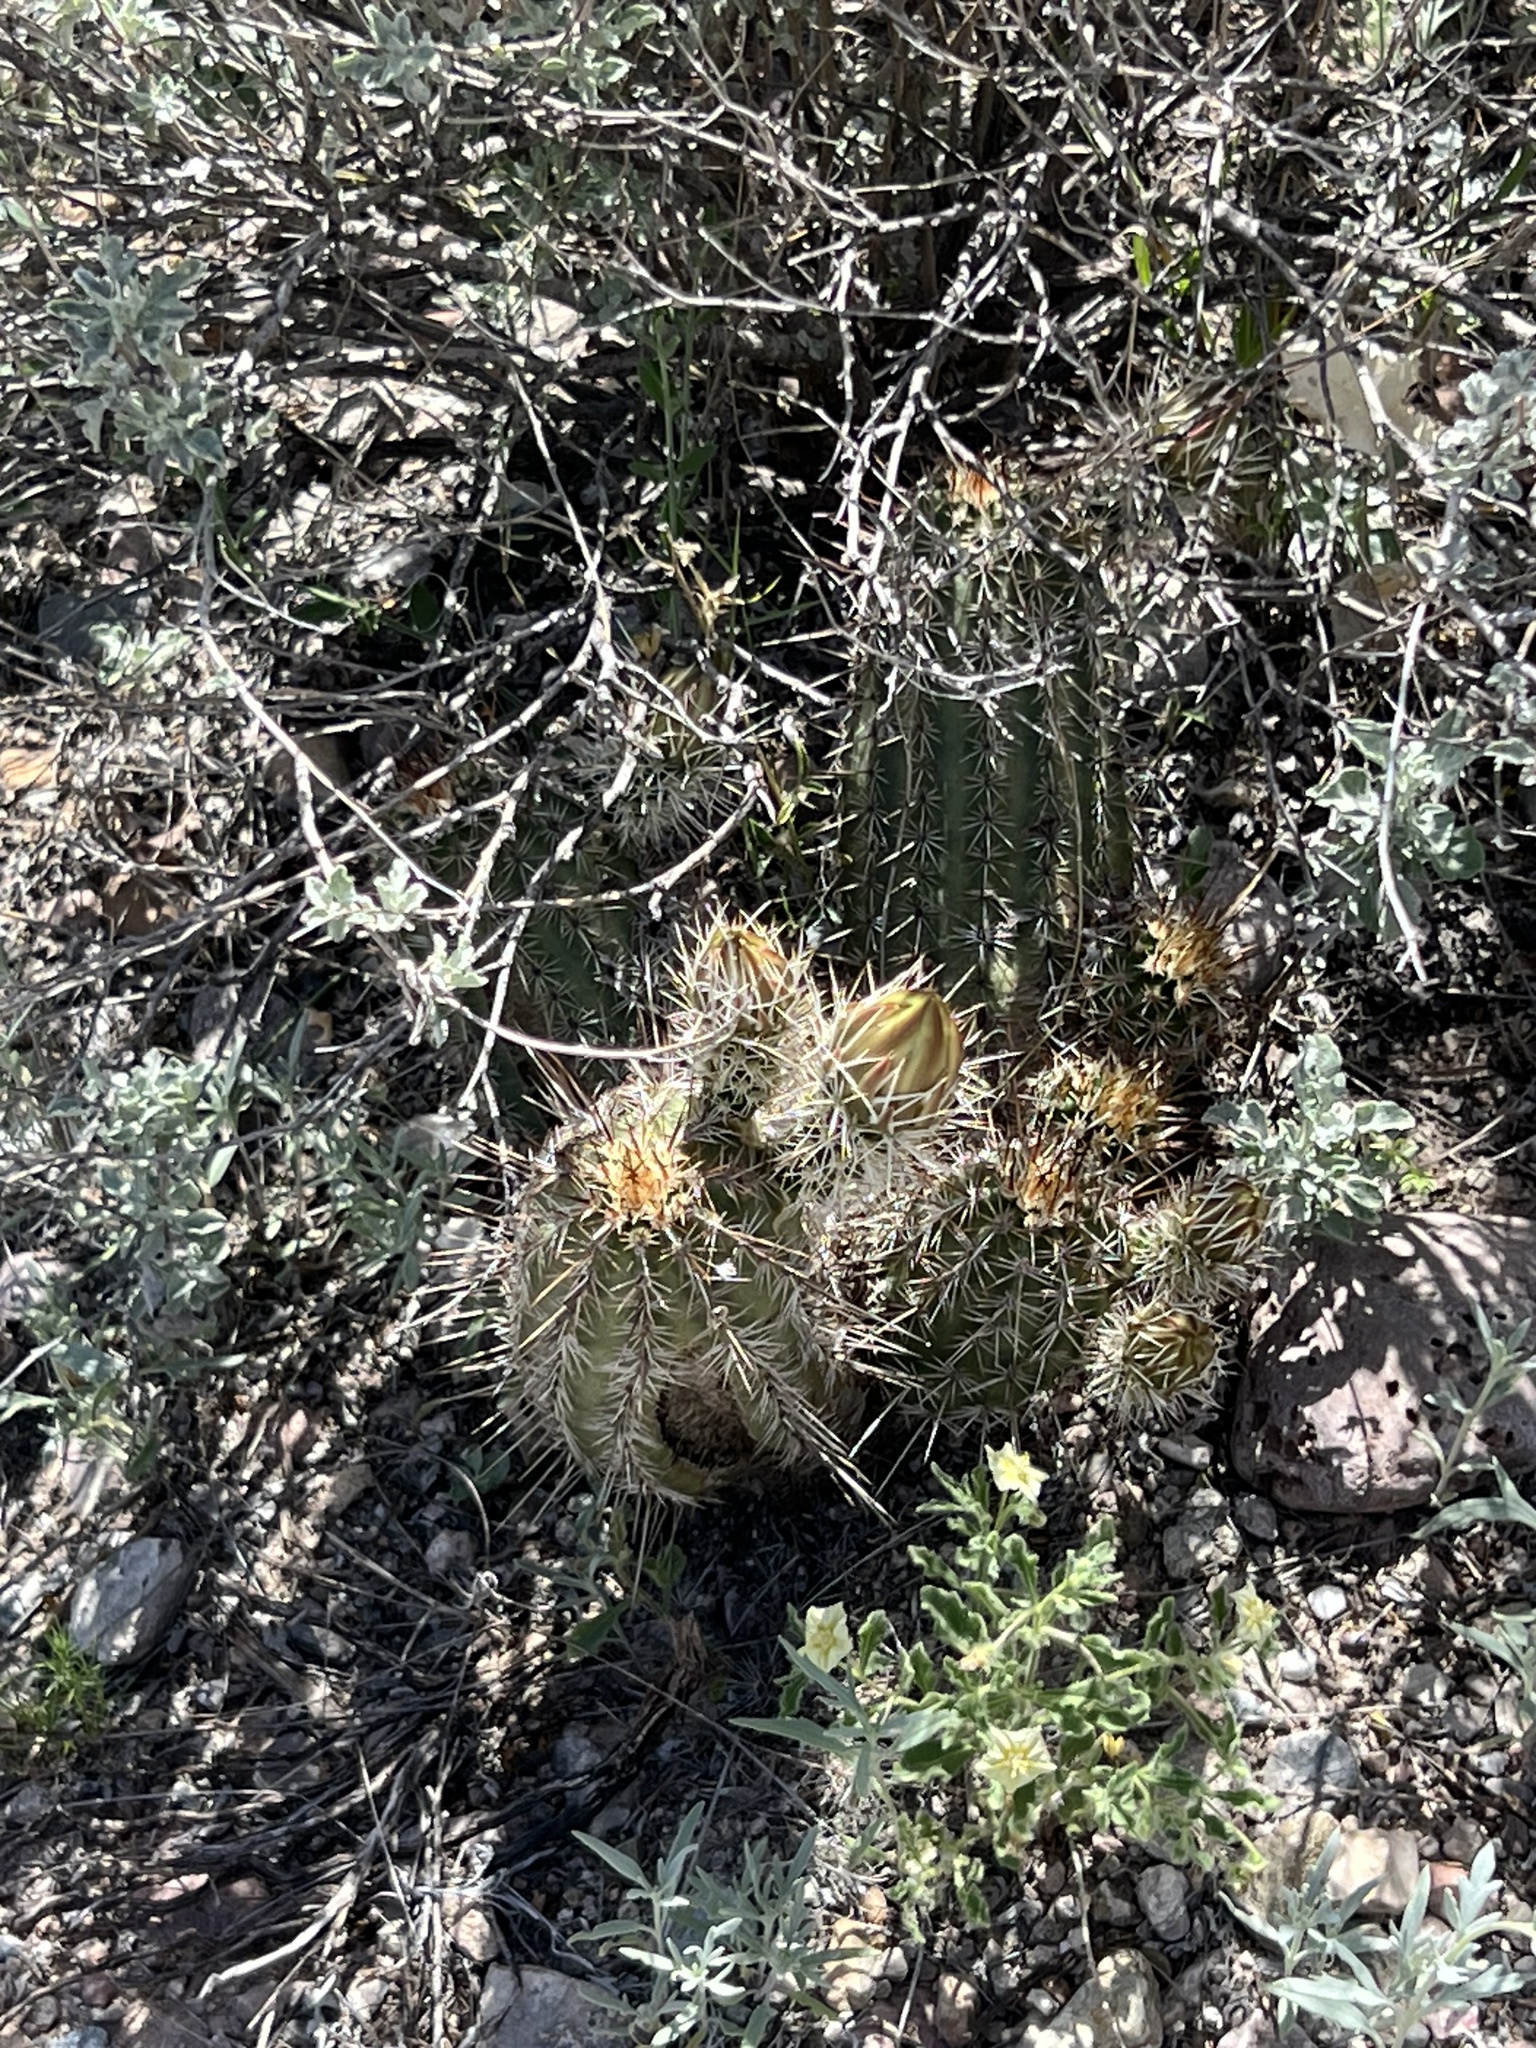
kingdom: Plantae
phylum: Tracheophyta
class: Magnoliopsida
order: Caryophyllales
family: Cactaceae
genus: Echinocereus
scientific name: Echinocereus fasciculatus
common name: Bundle hedgehog
